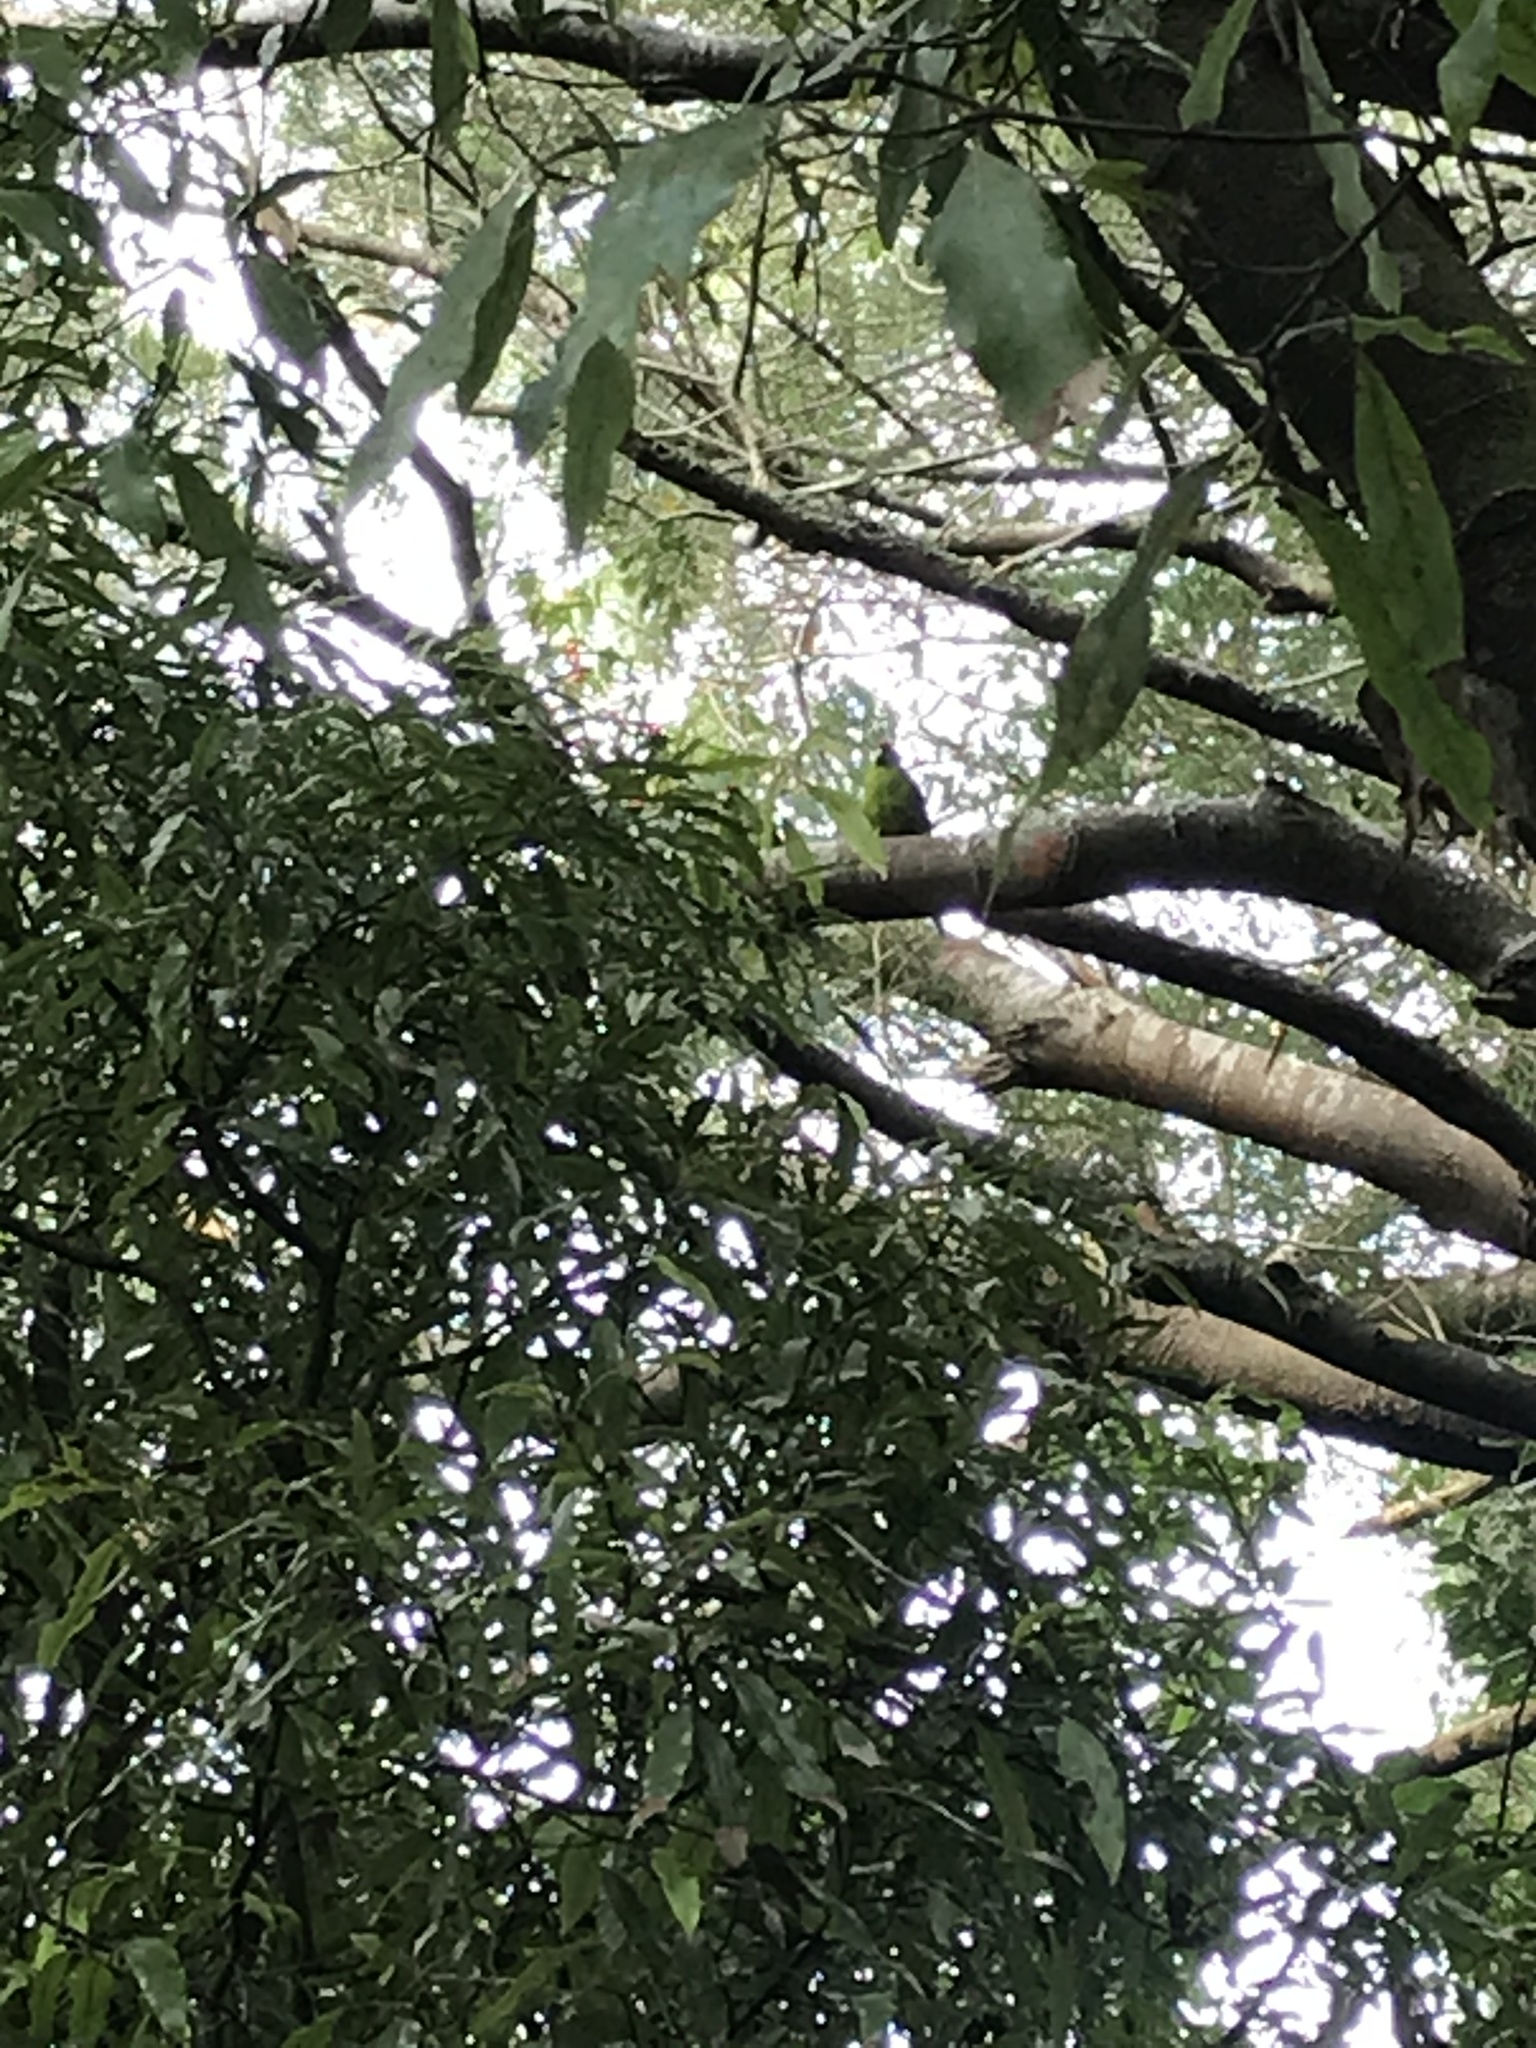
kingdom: Animalia
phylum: Chordata
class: Aves
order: Psittaciformes
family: Psittacidae
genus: Cyanoramphus
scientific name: Cyanoramphus novaezelandiae
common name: Red-fronted parakeet
